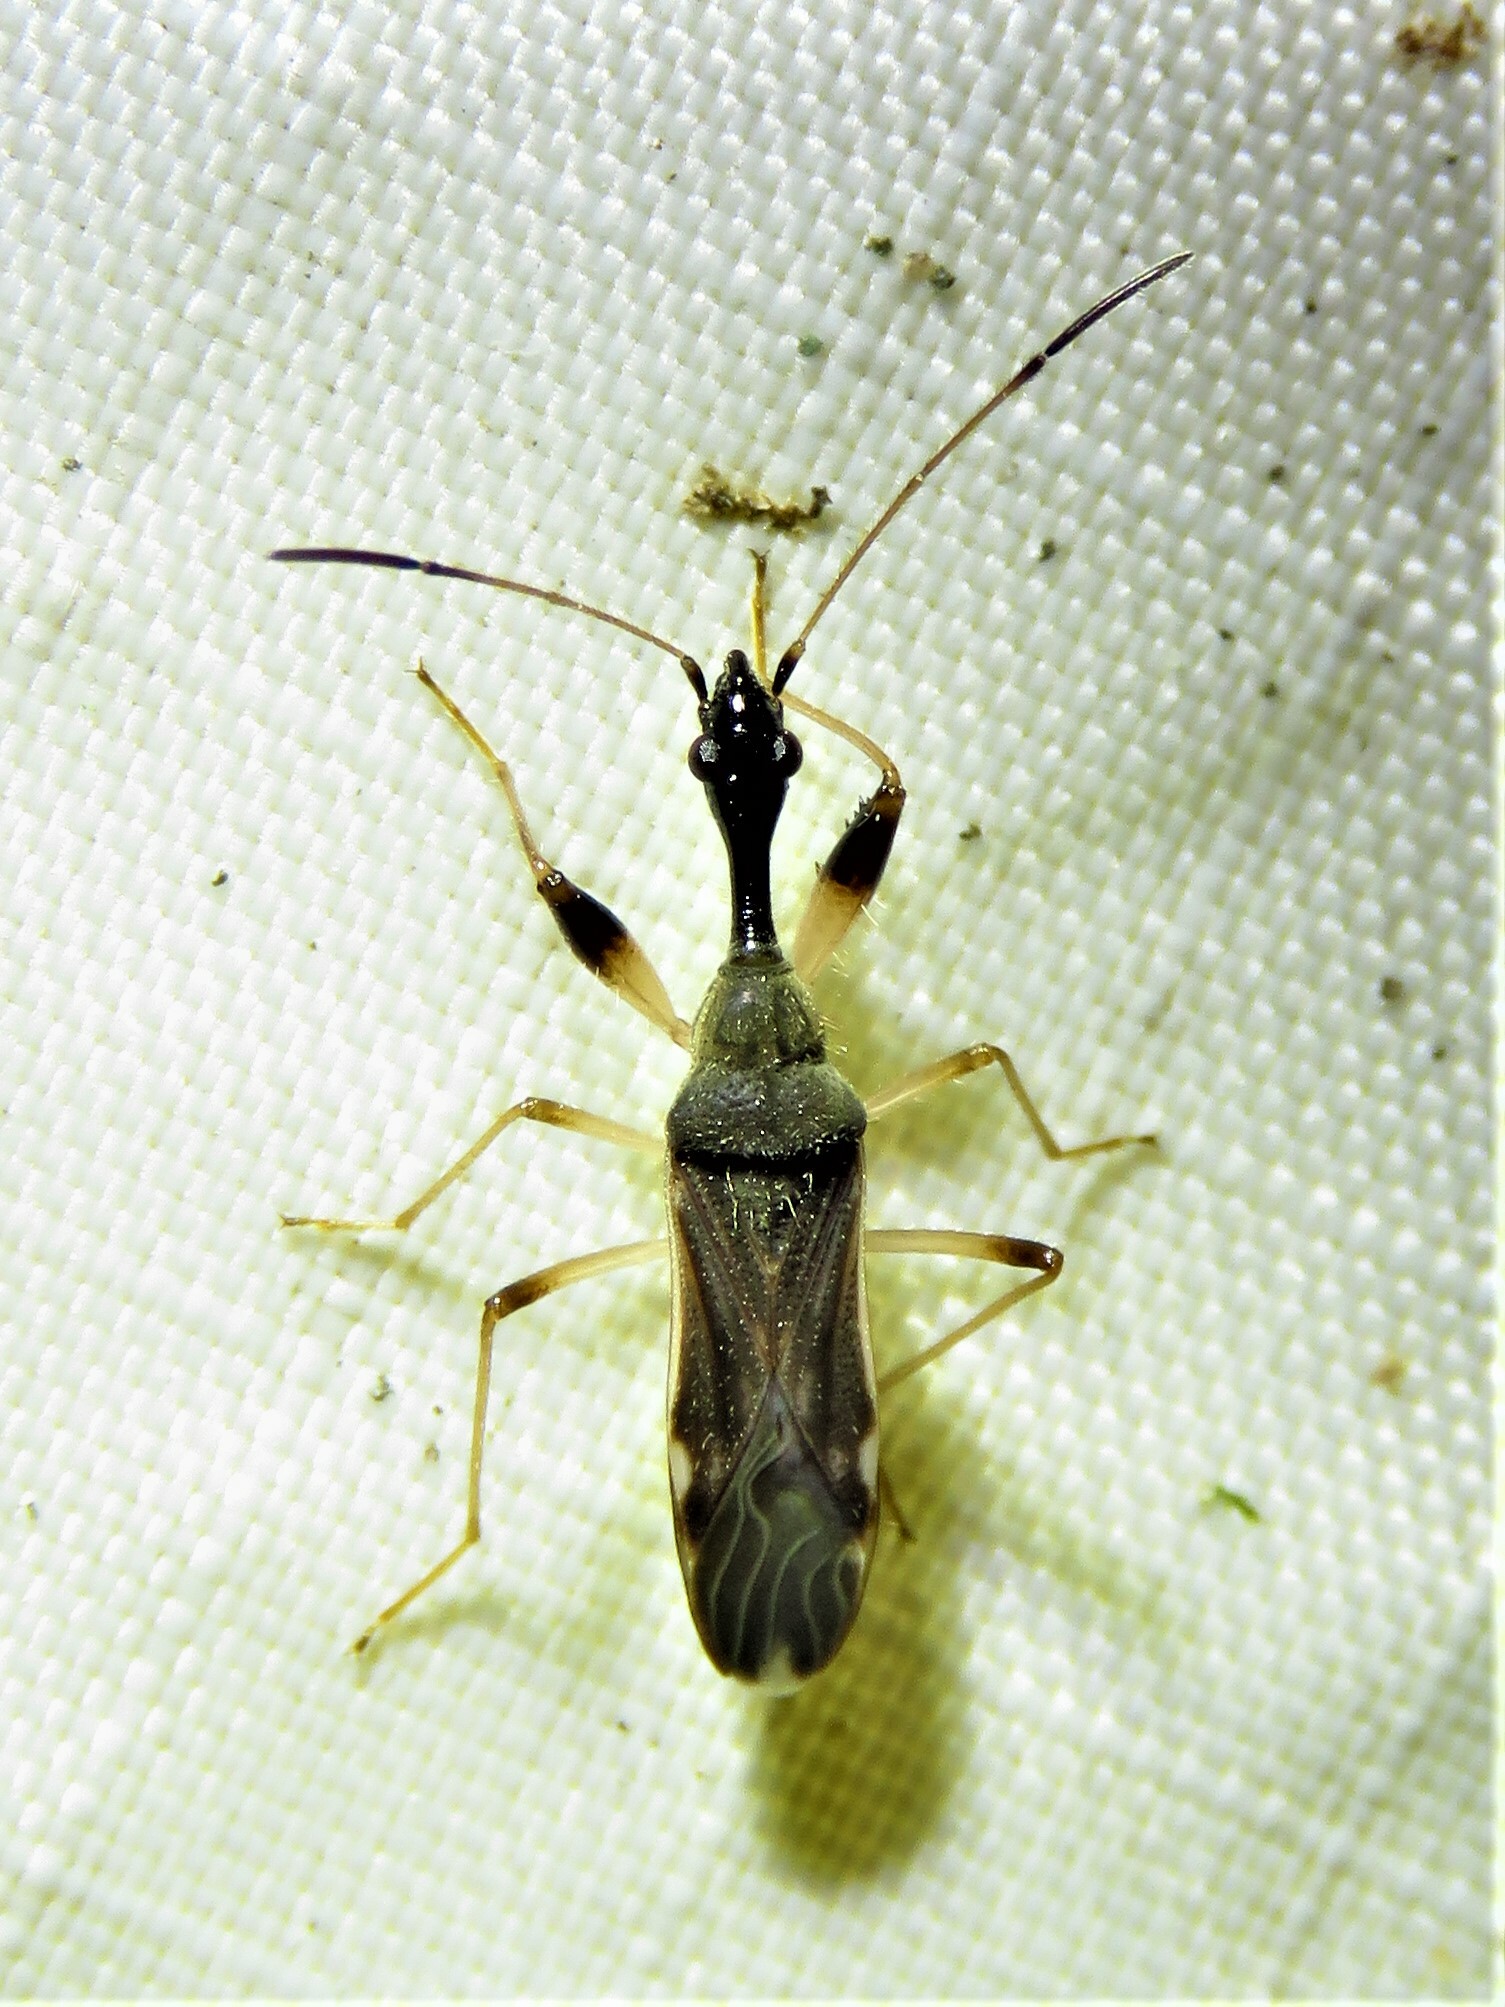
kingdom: Animalia
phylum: Arthropoda
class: Insecta
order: Hemiptera
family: Rhyparochromidae
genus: Myodocha
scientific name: Myodocha serripes
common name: Long-necked seed bug
